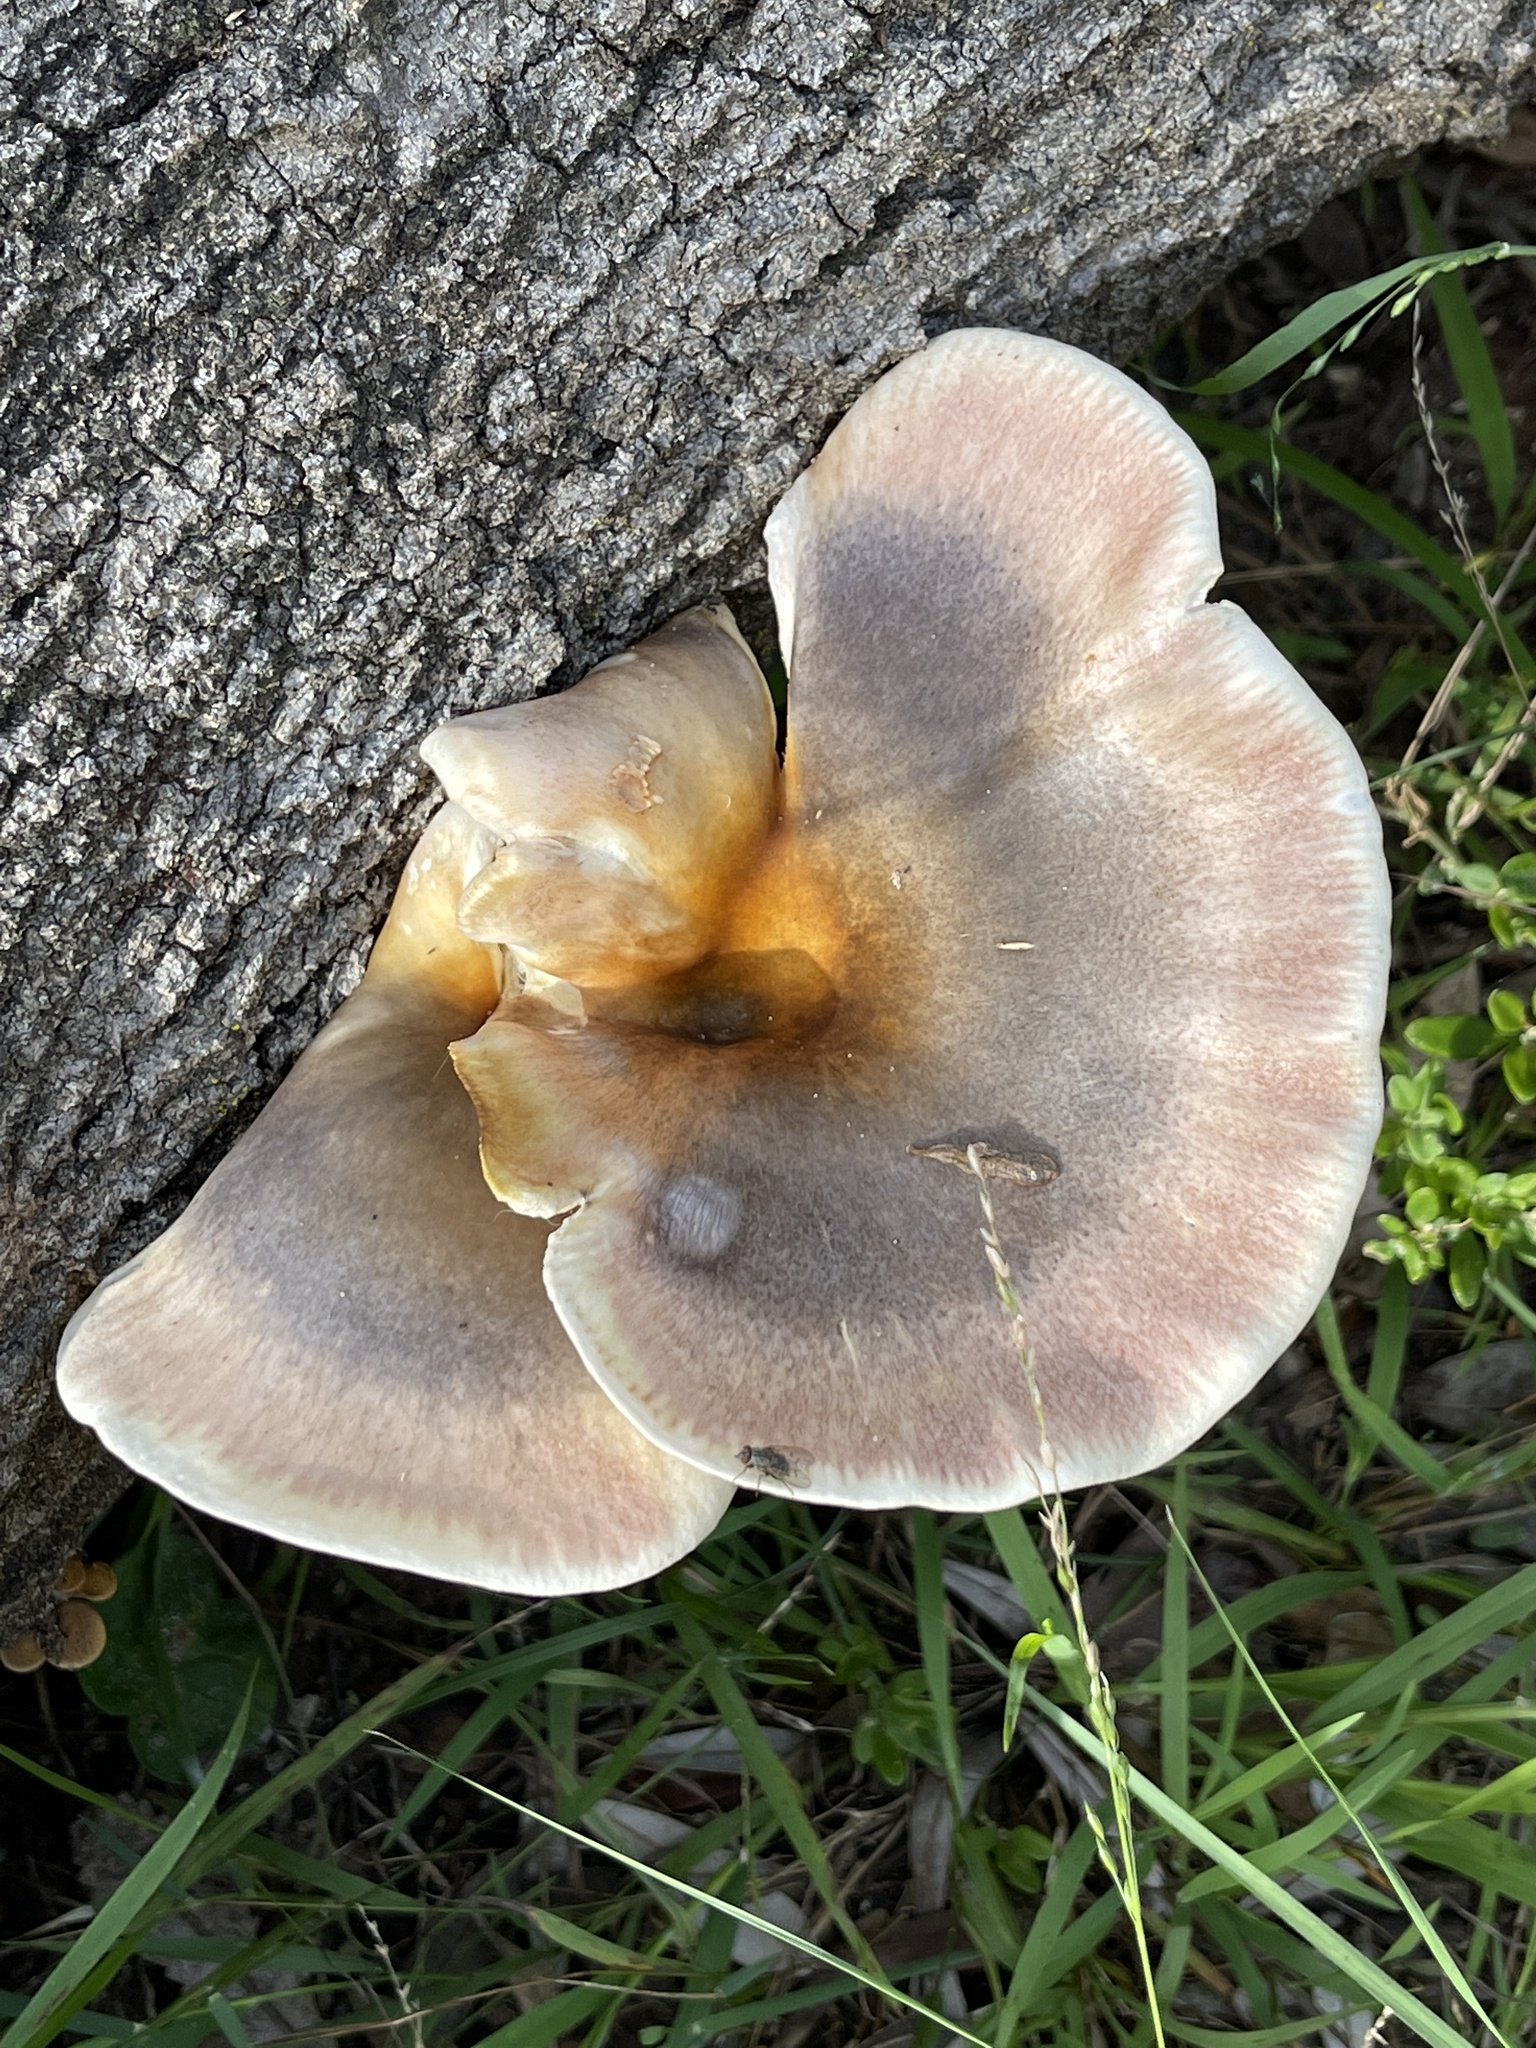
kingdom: Fungi
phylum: Basidiomycota
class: Agaricomycetes
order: Agaricales
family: Omphalotaceae
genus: Omphalotus
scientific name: Omphalotus nidiformis
